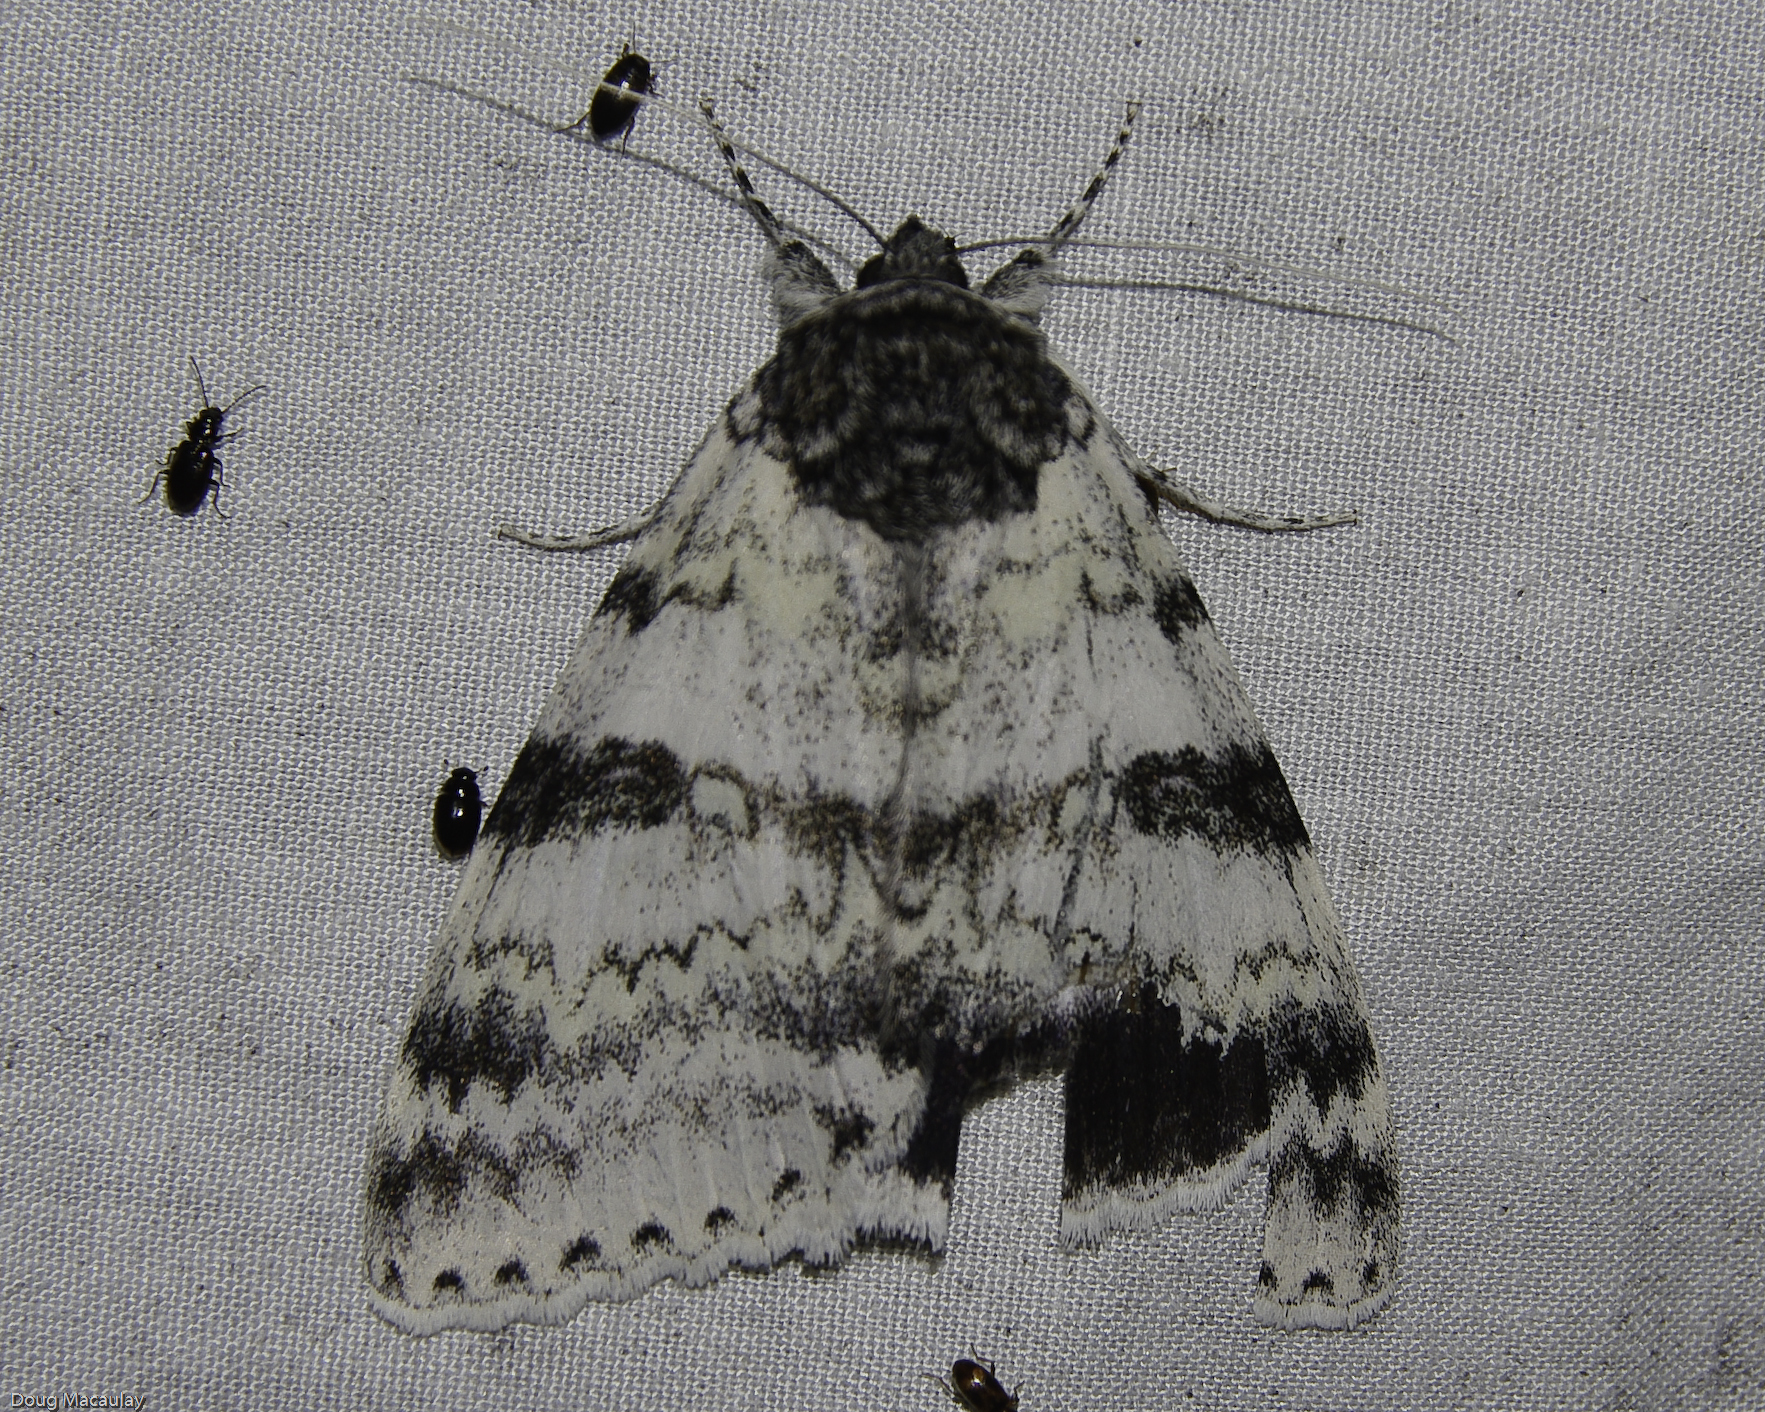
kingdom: Animalia
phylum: Arthropoda
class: Insecta
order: Lepidoptera
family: Erebidae
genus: Catocala
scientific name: Catocala relicta
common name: White underwing
